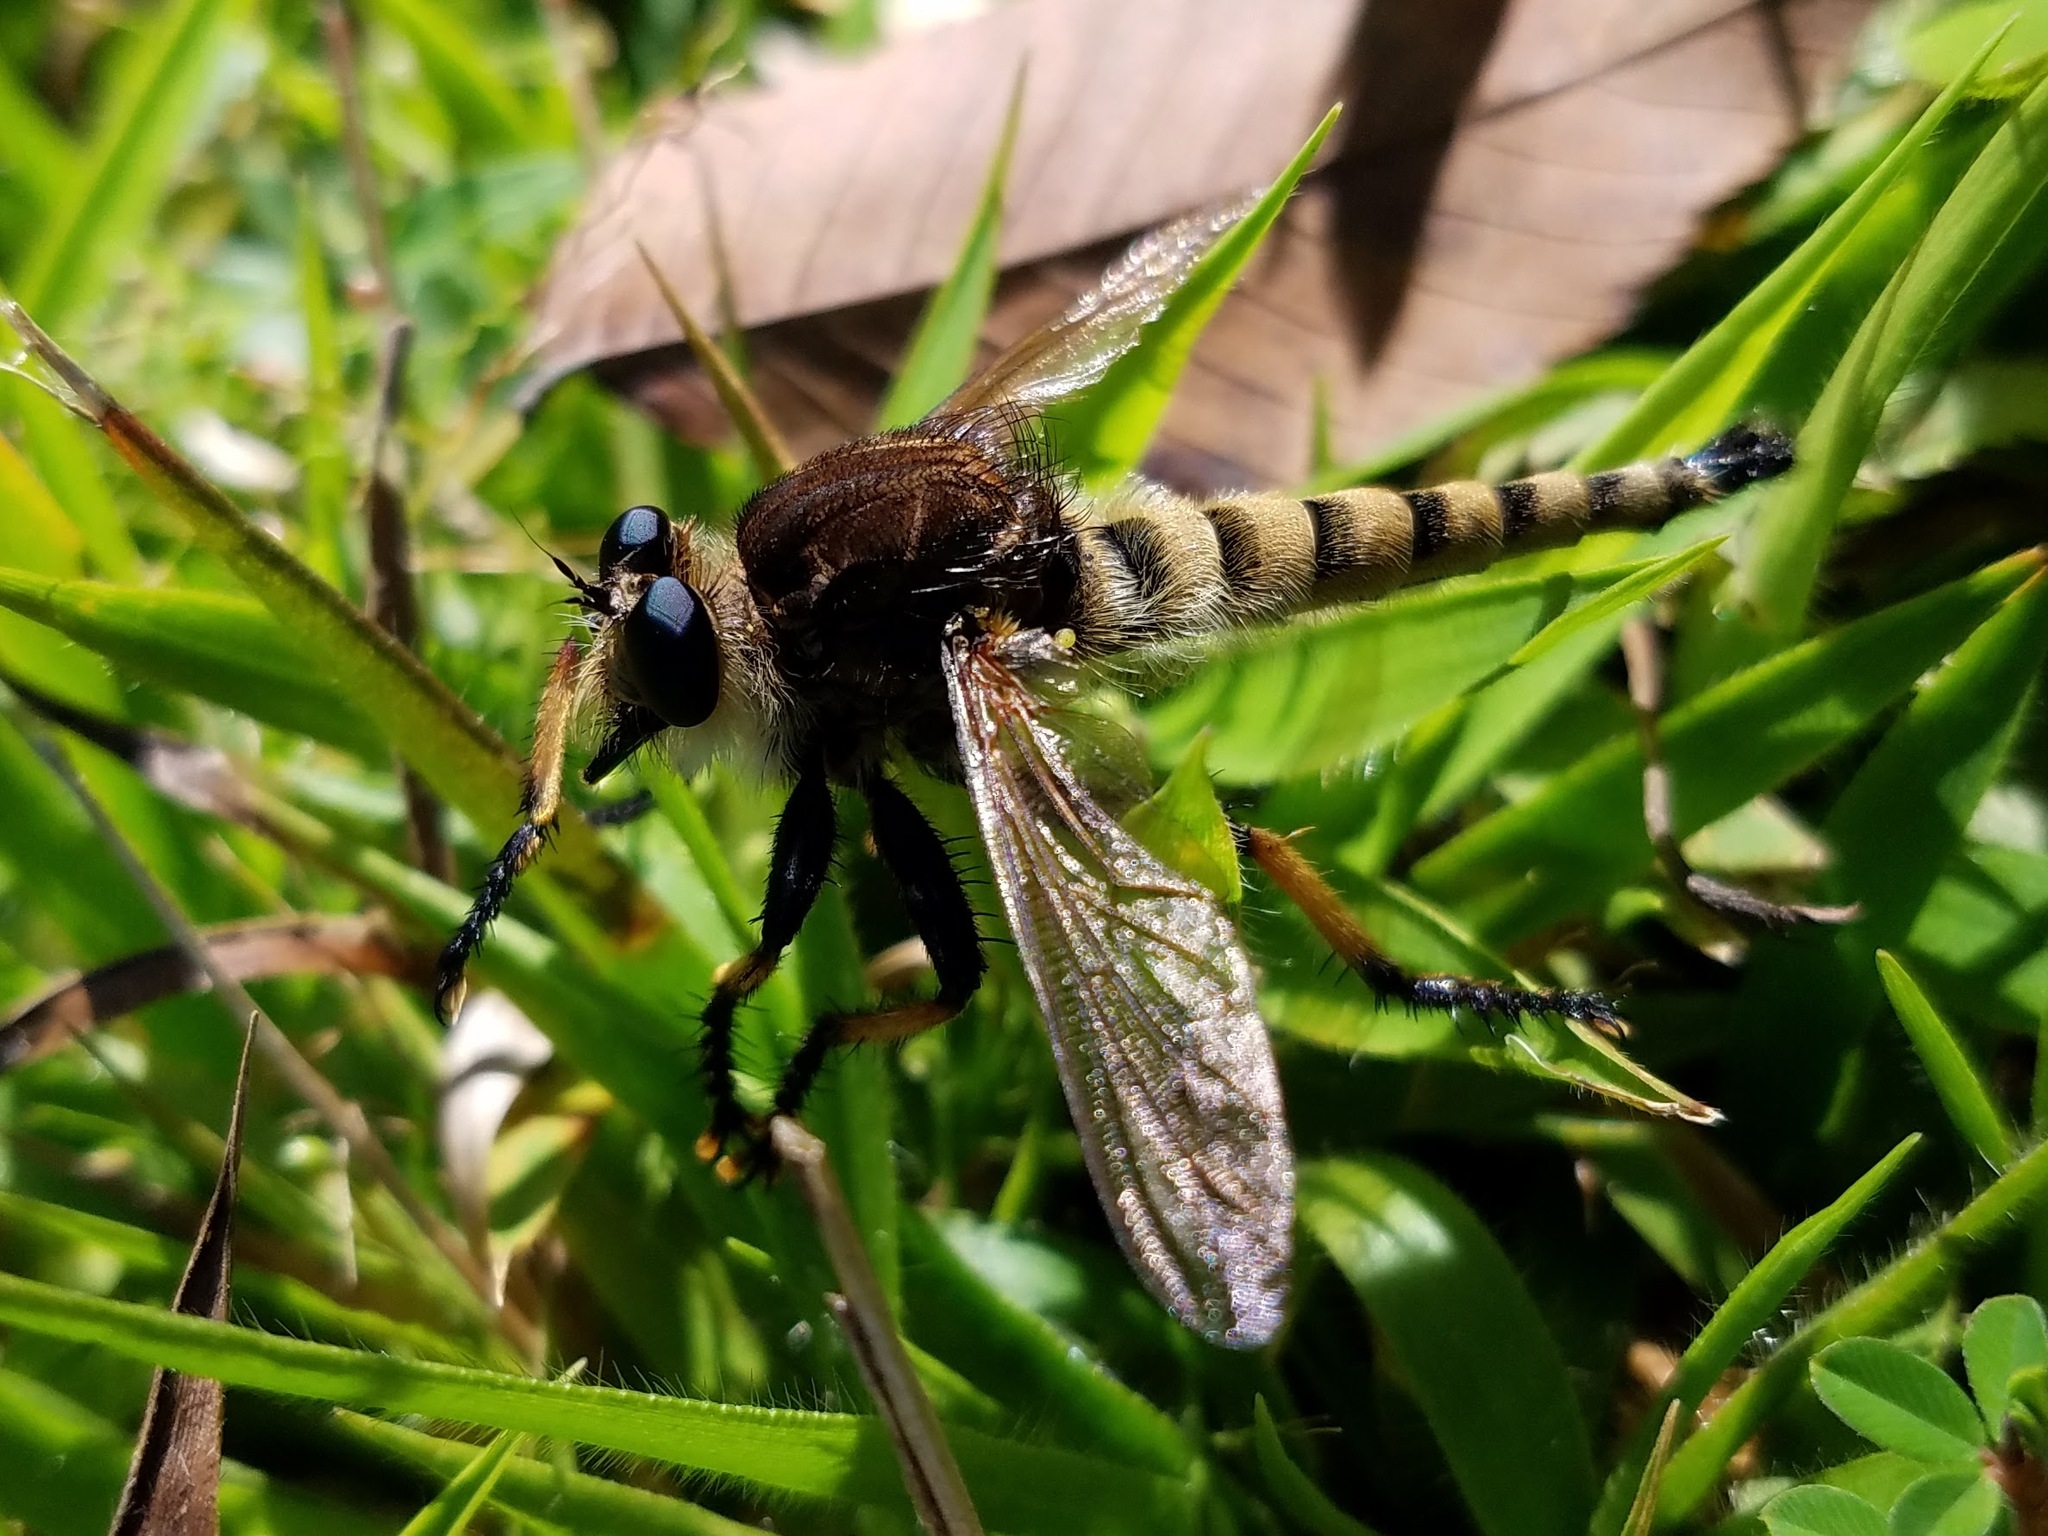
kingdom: Animalia
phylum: Arthropoda
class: Insecta
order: Diptera
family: Asilidae
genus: Promachus
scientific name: Promachus rufipes
